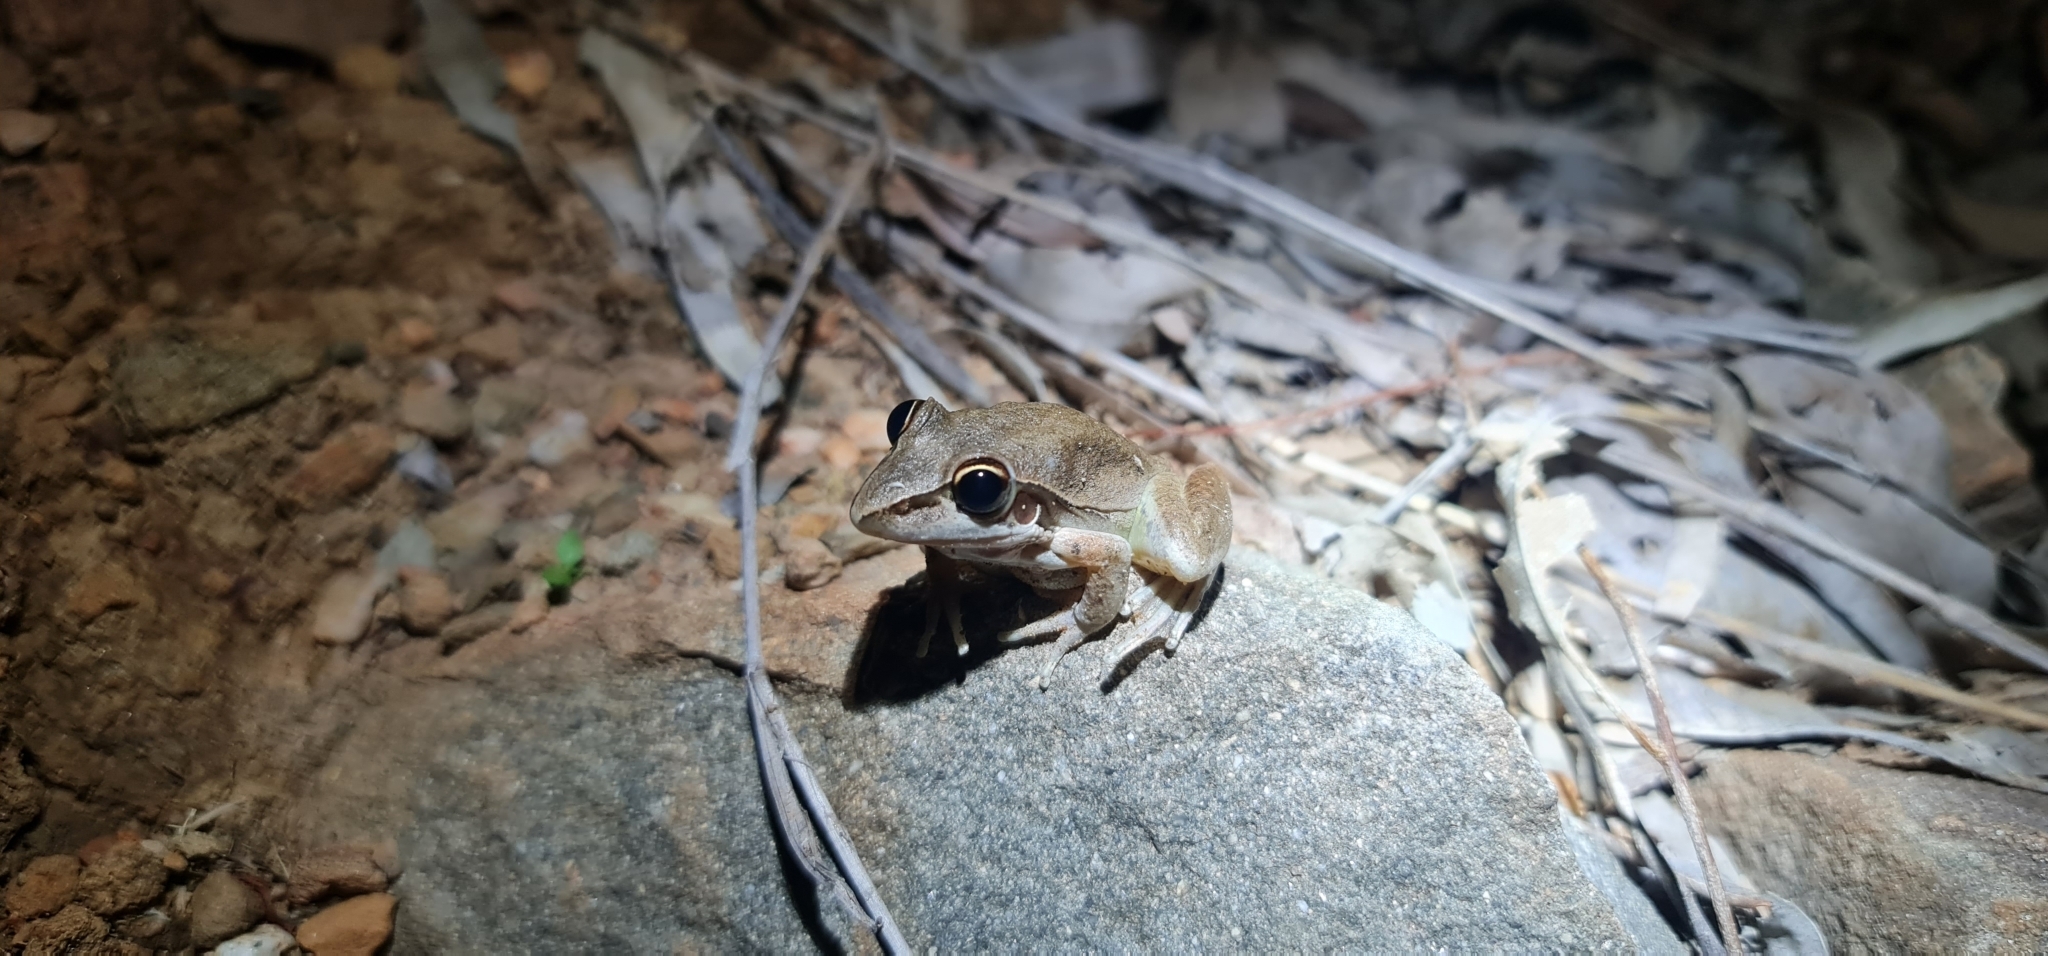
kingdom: Animalia
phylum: Chordata
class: Amphibia
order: Anura
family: Pelodryadidae
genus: Litoria
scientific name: Litoria watjulumensis
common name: Wotjulum frog
